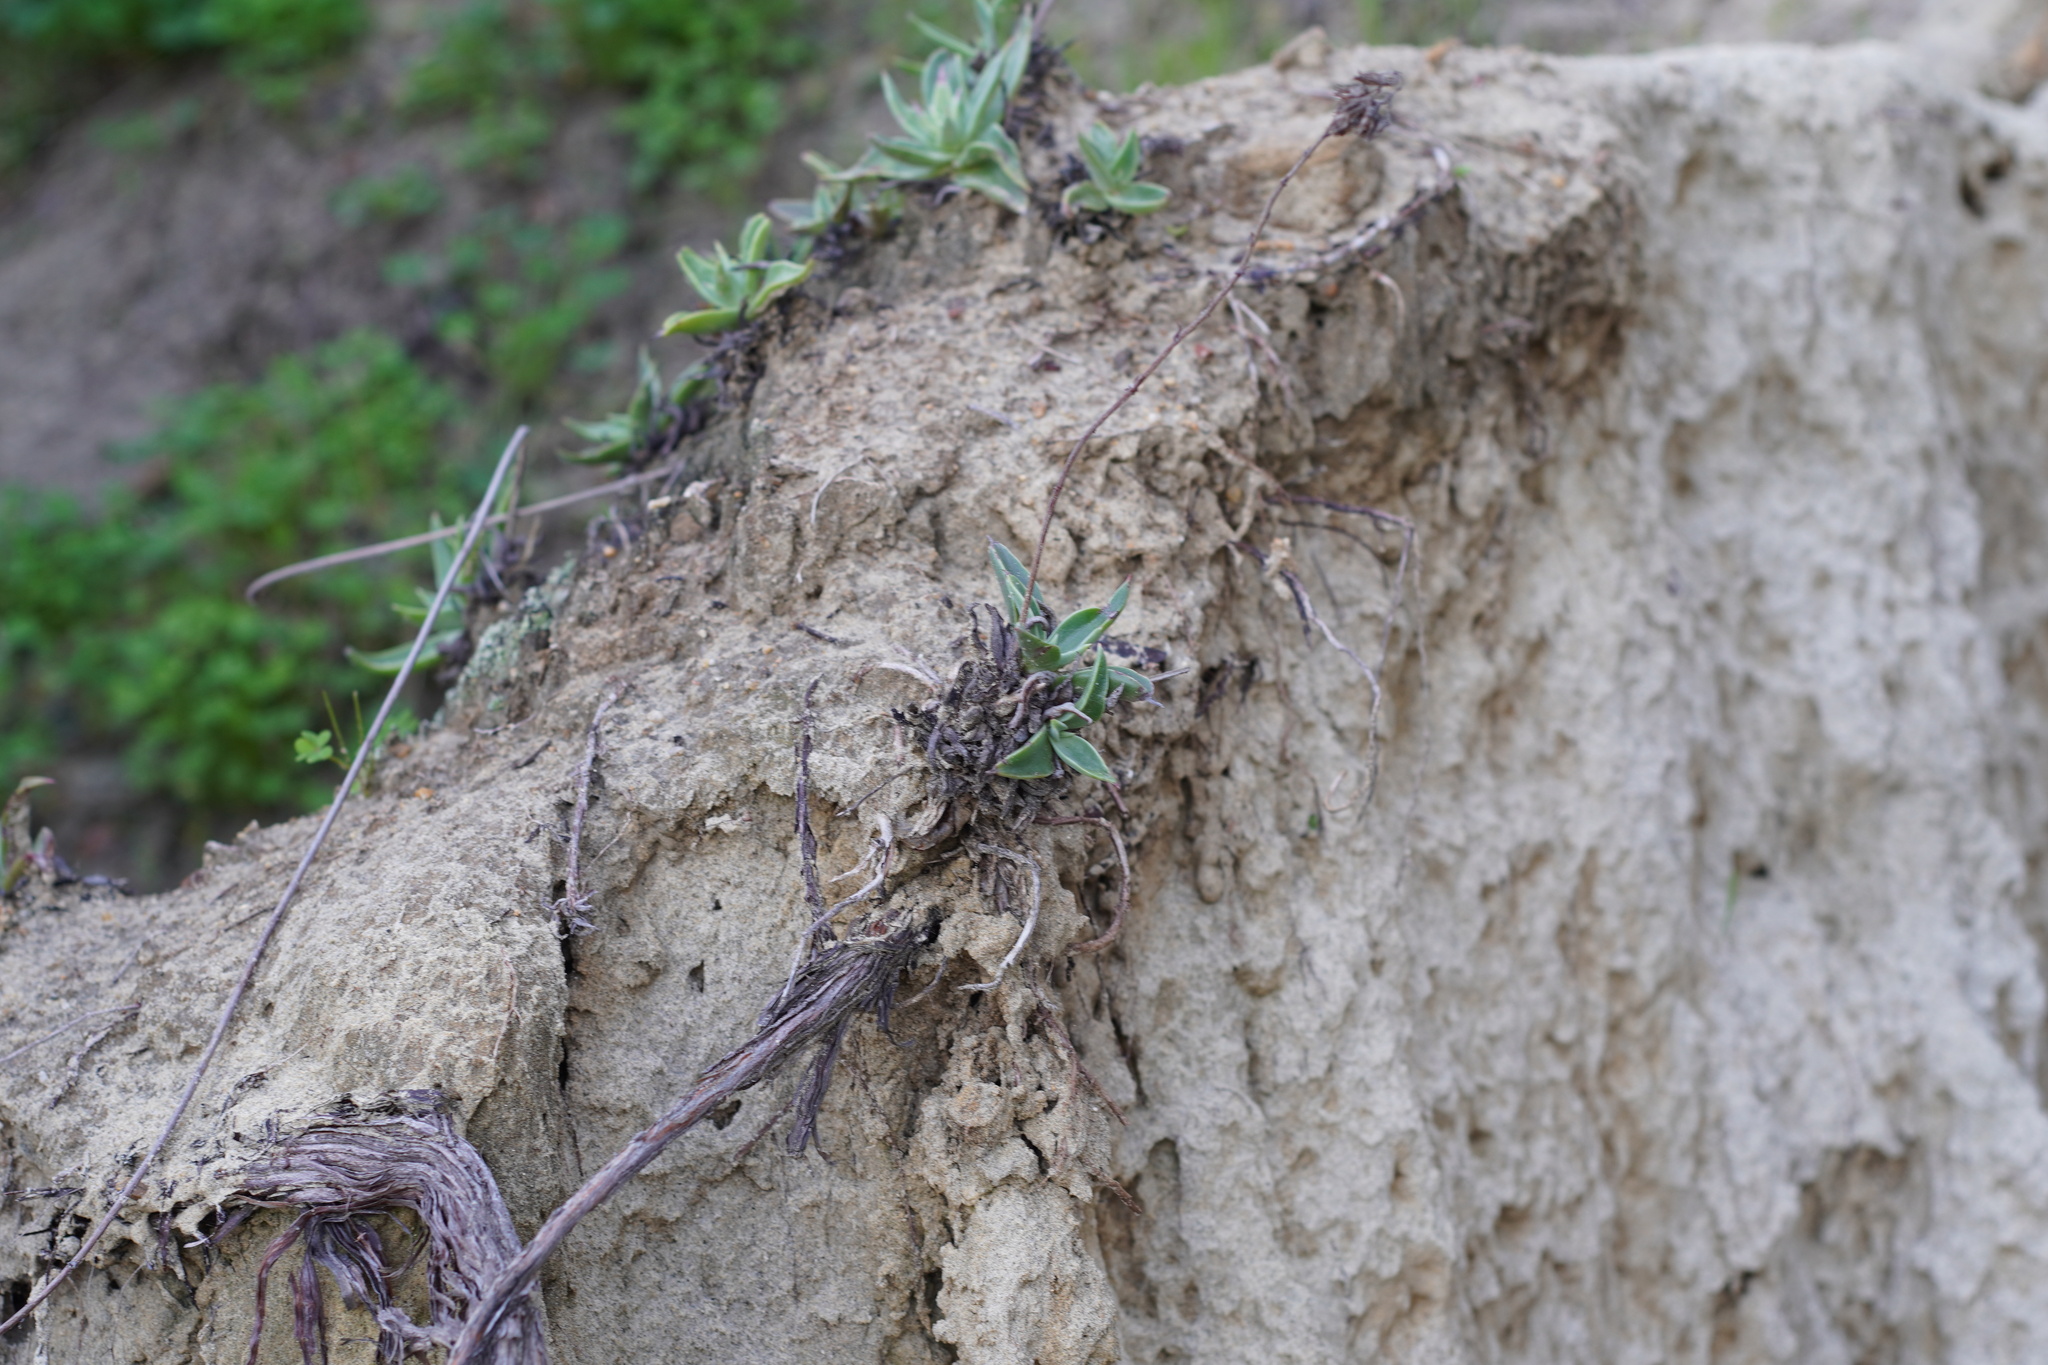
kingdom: Plantae
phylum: Tracheophyta
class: Magnoliopsida
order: Saxifragales
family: Crassulaceae
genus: Dudleya
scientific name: Dudleya lanceolata
